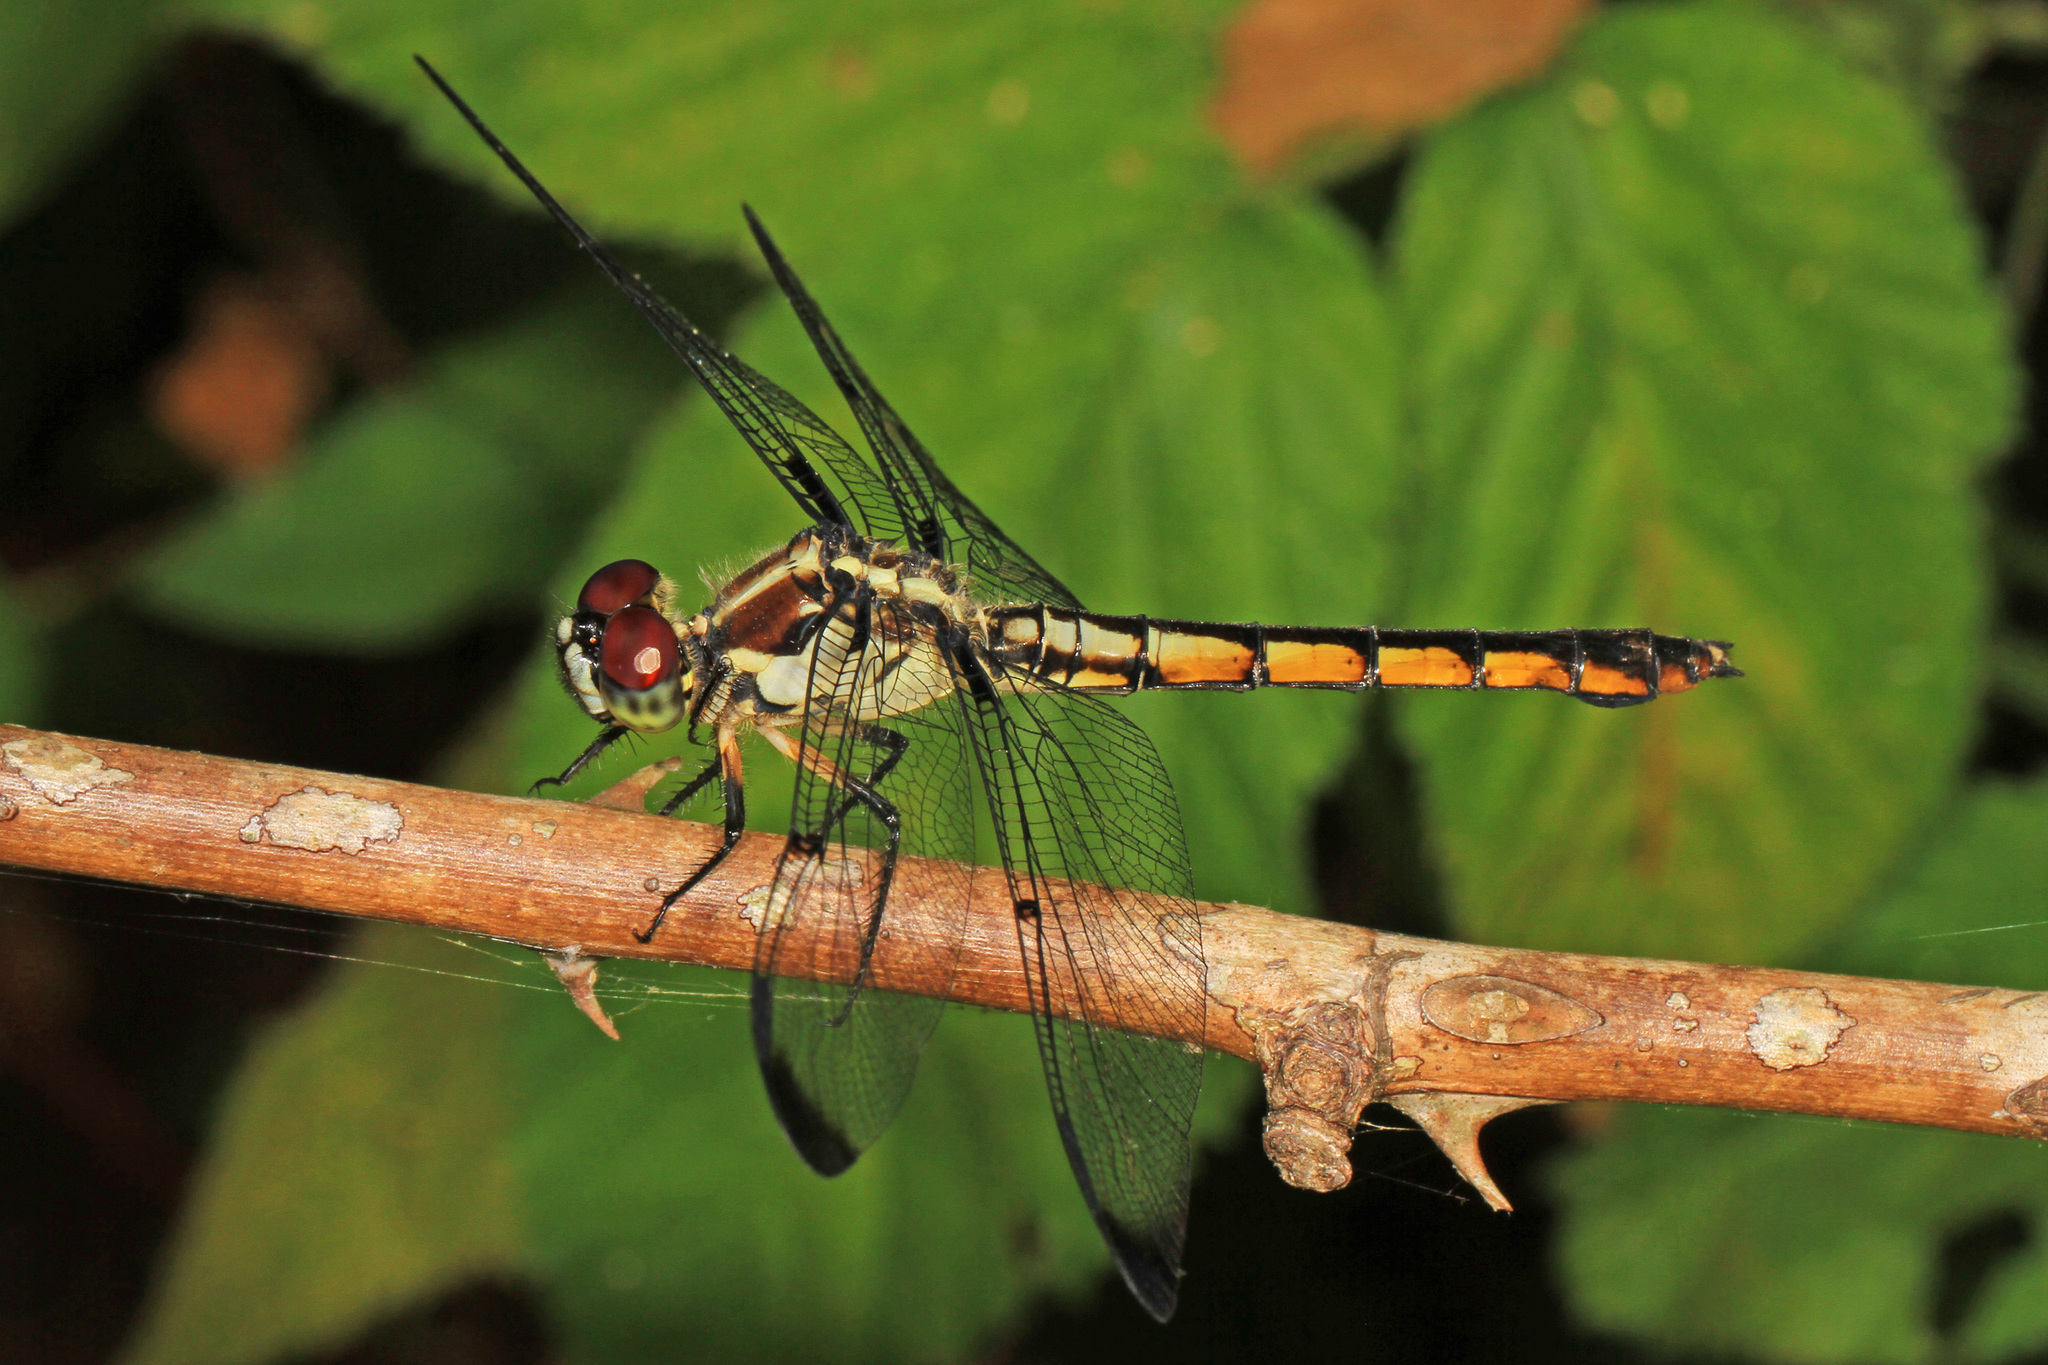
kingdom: Animalia
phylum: Arthropoda
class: Insecta
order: Odonata
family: Libellulidae
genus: Libellula
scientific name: Libellula vibrans
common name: Great blue skimmer
